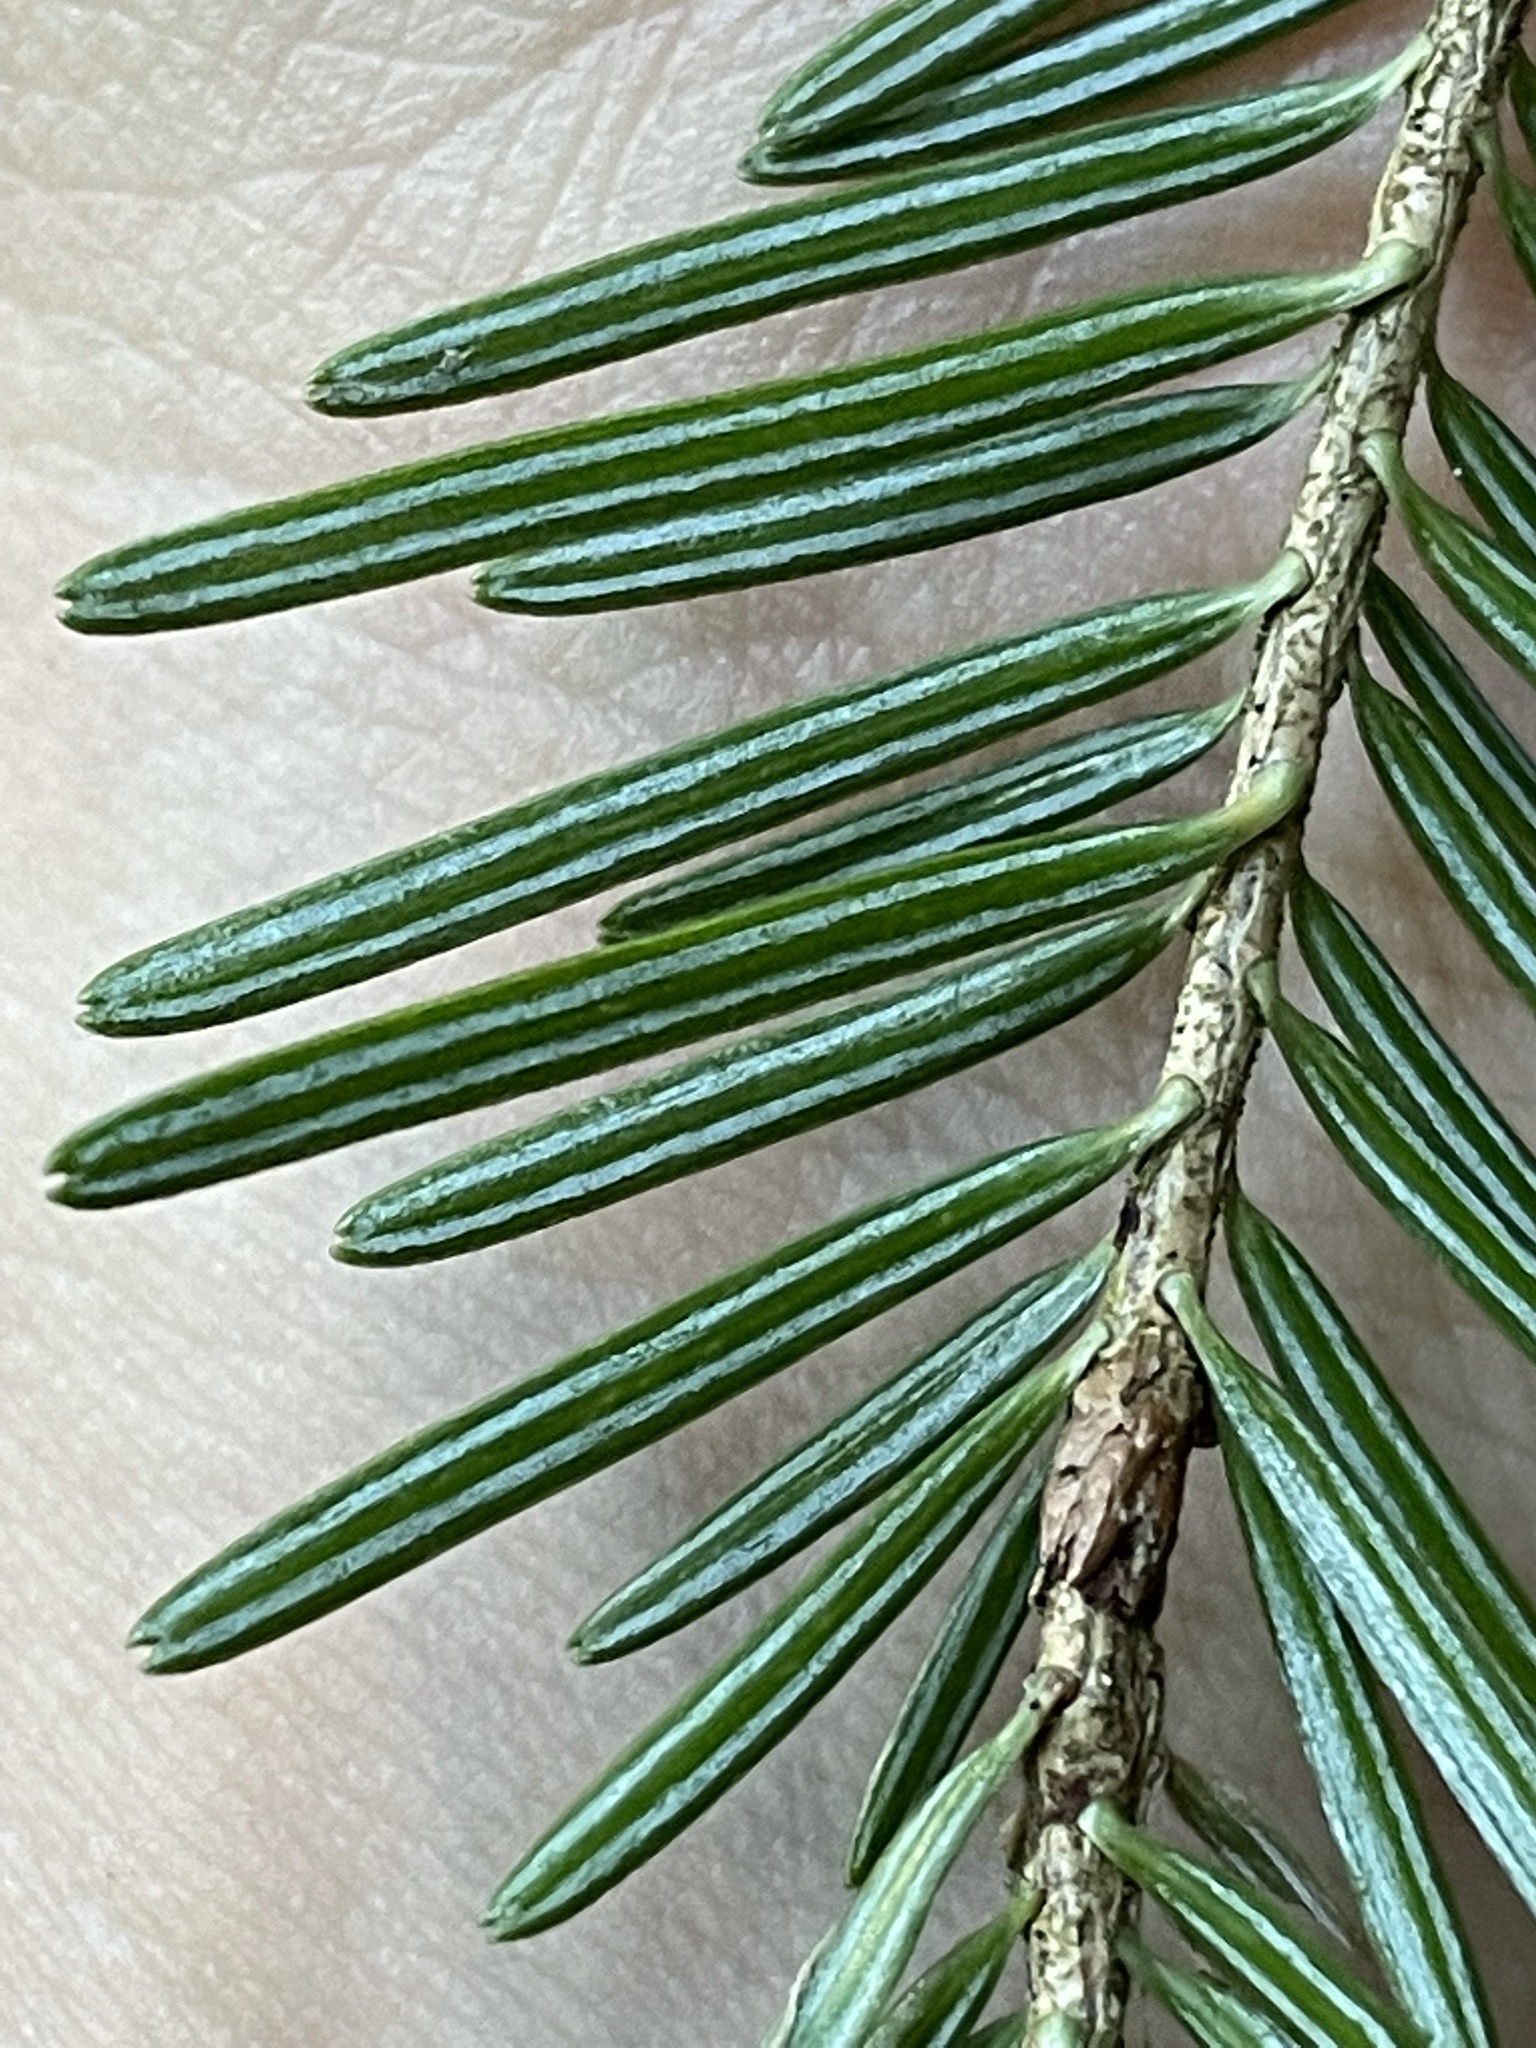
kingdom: Plantae
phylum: Tracheophyta
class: Pinopsida
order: Pinales
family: Pinaceae
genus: Abies
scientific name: Abies alba
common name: Silver fir
